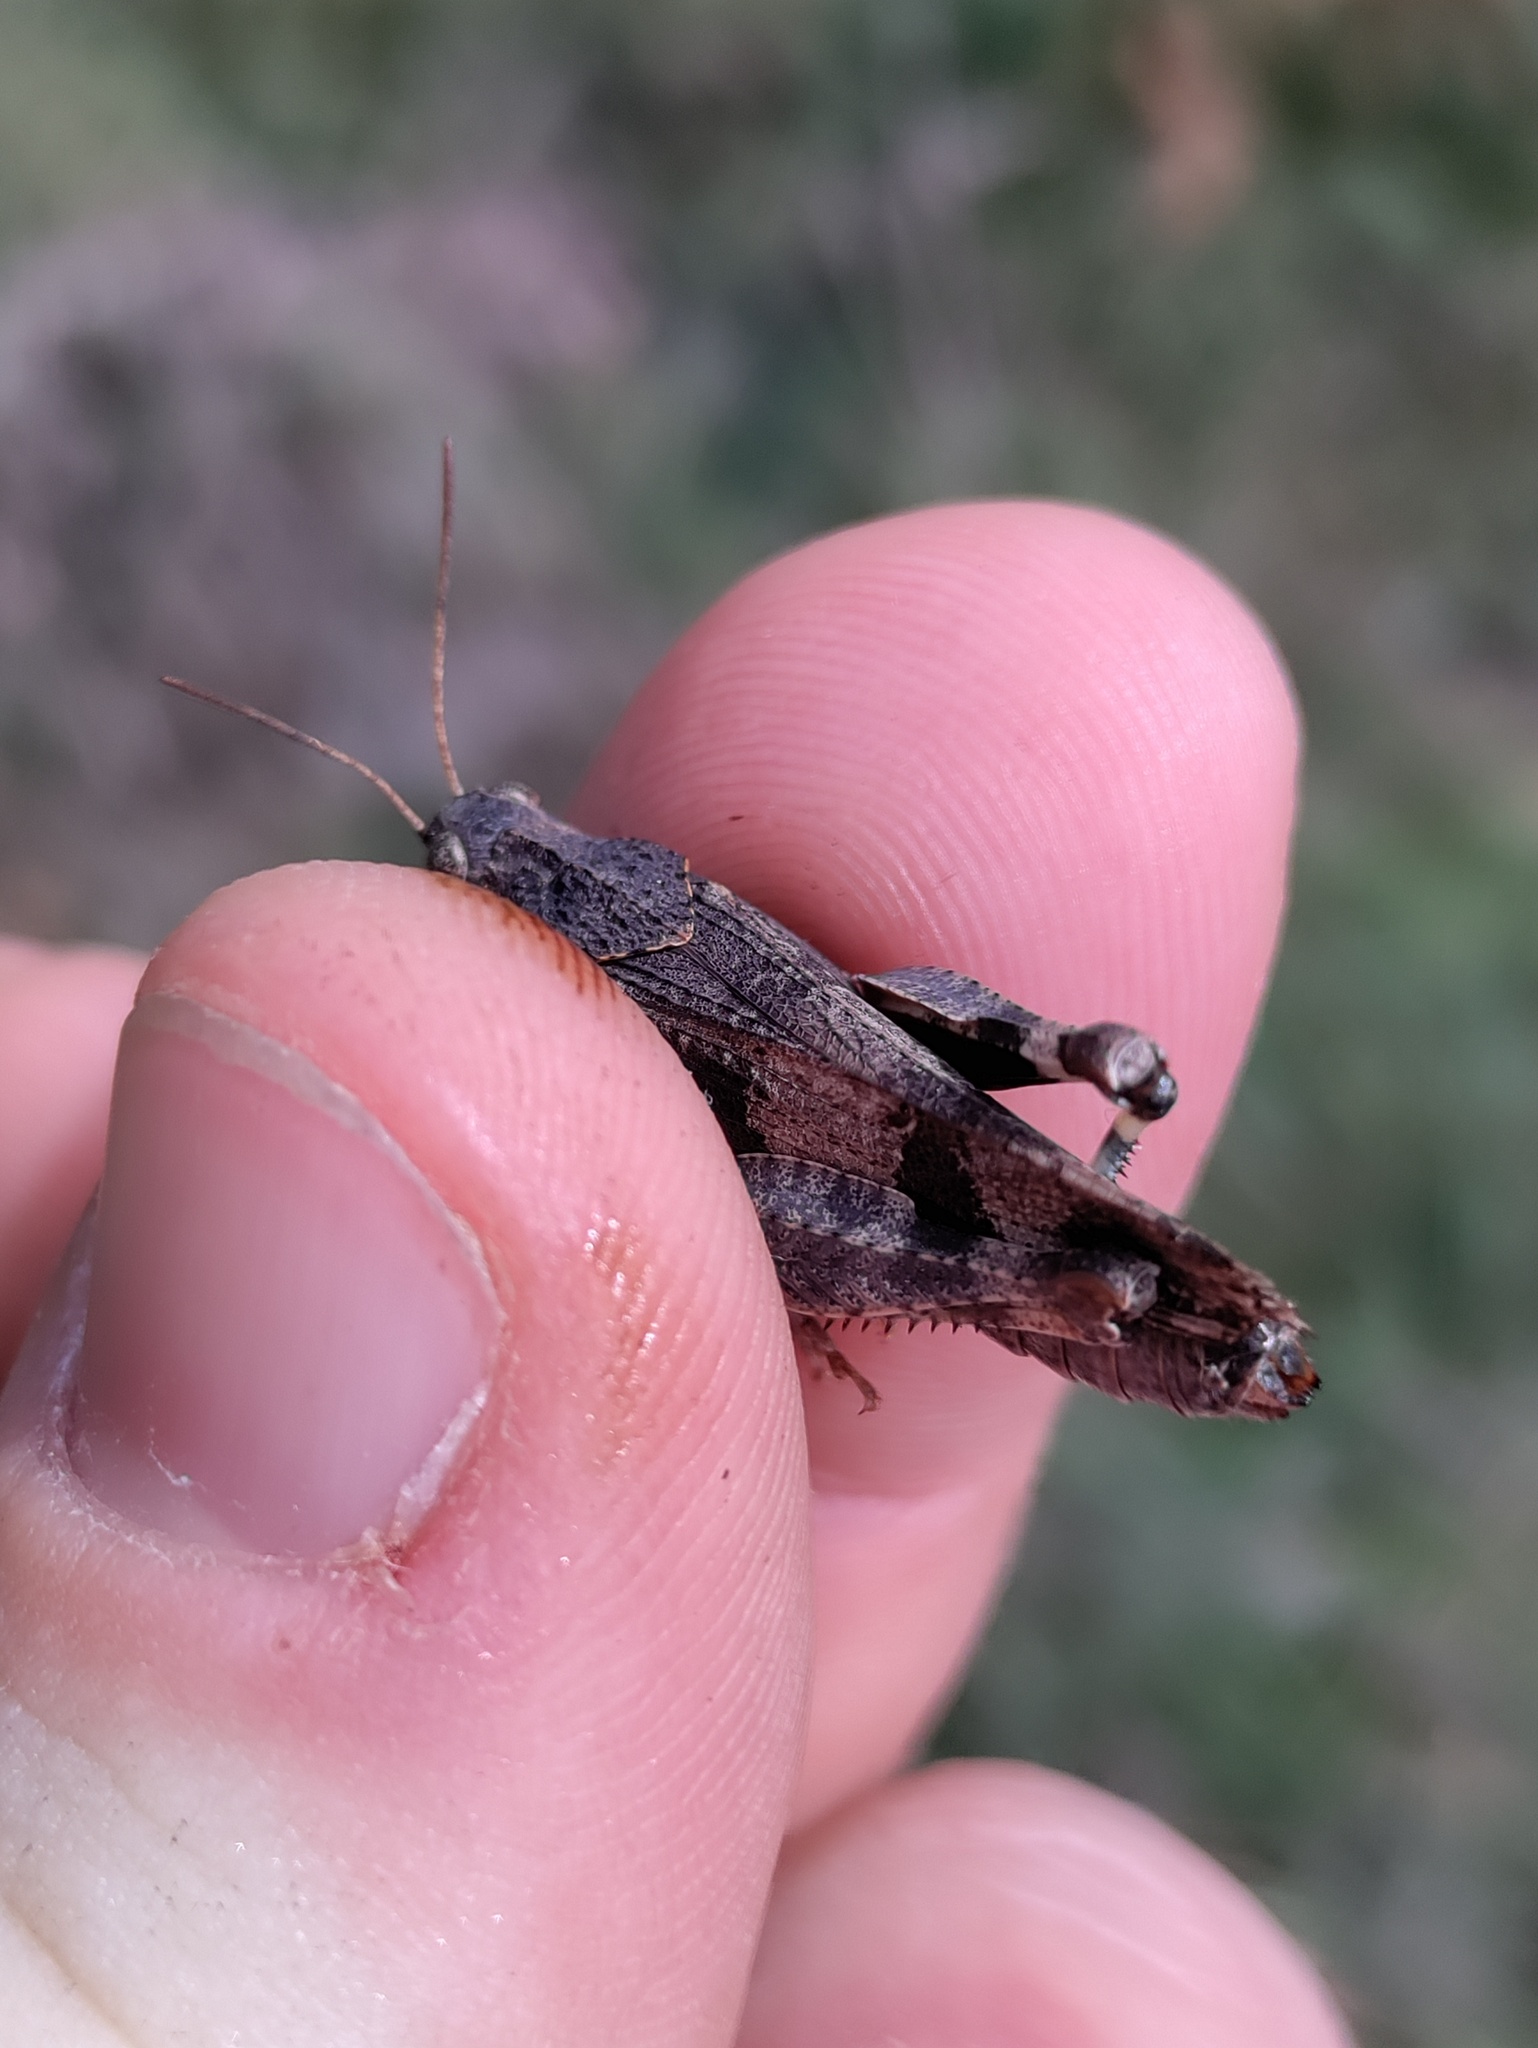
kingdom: Animalia
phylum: Arthropoda
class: Insecta
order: Orthoptera
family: Acrididae
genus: Oedipoda
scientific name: Oedipoda caerulescens
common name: Blue-winged grasshopper
